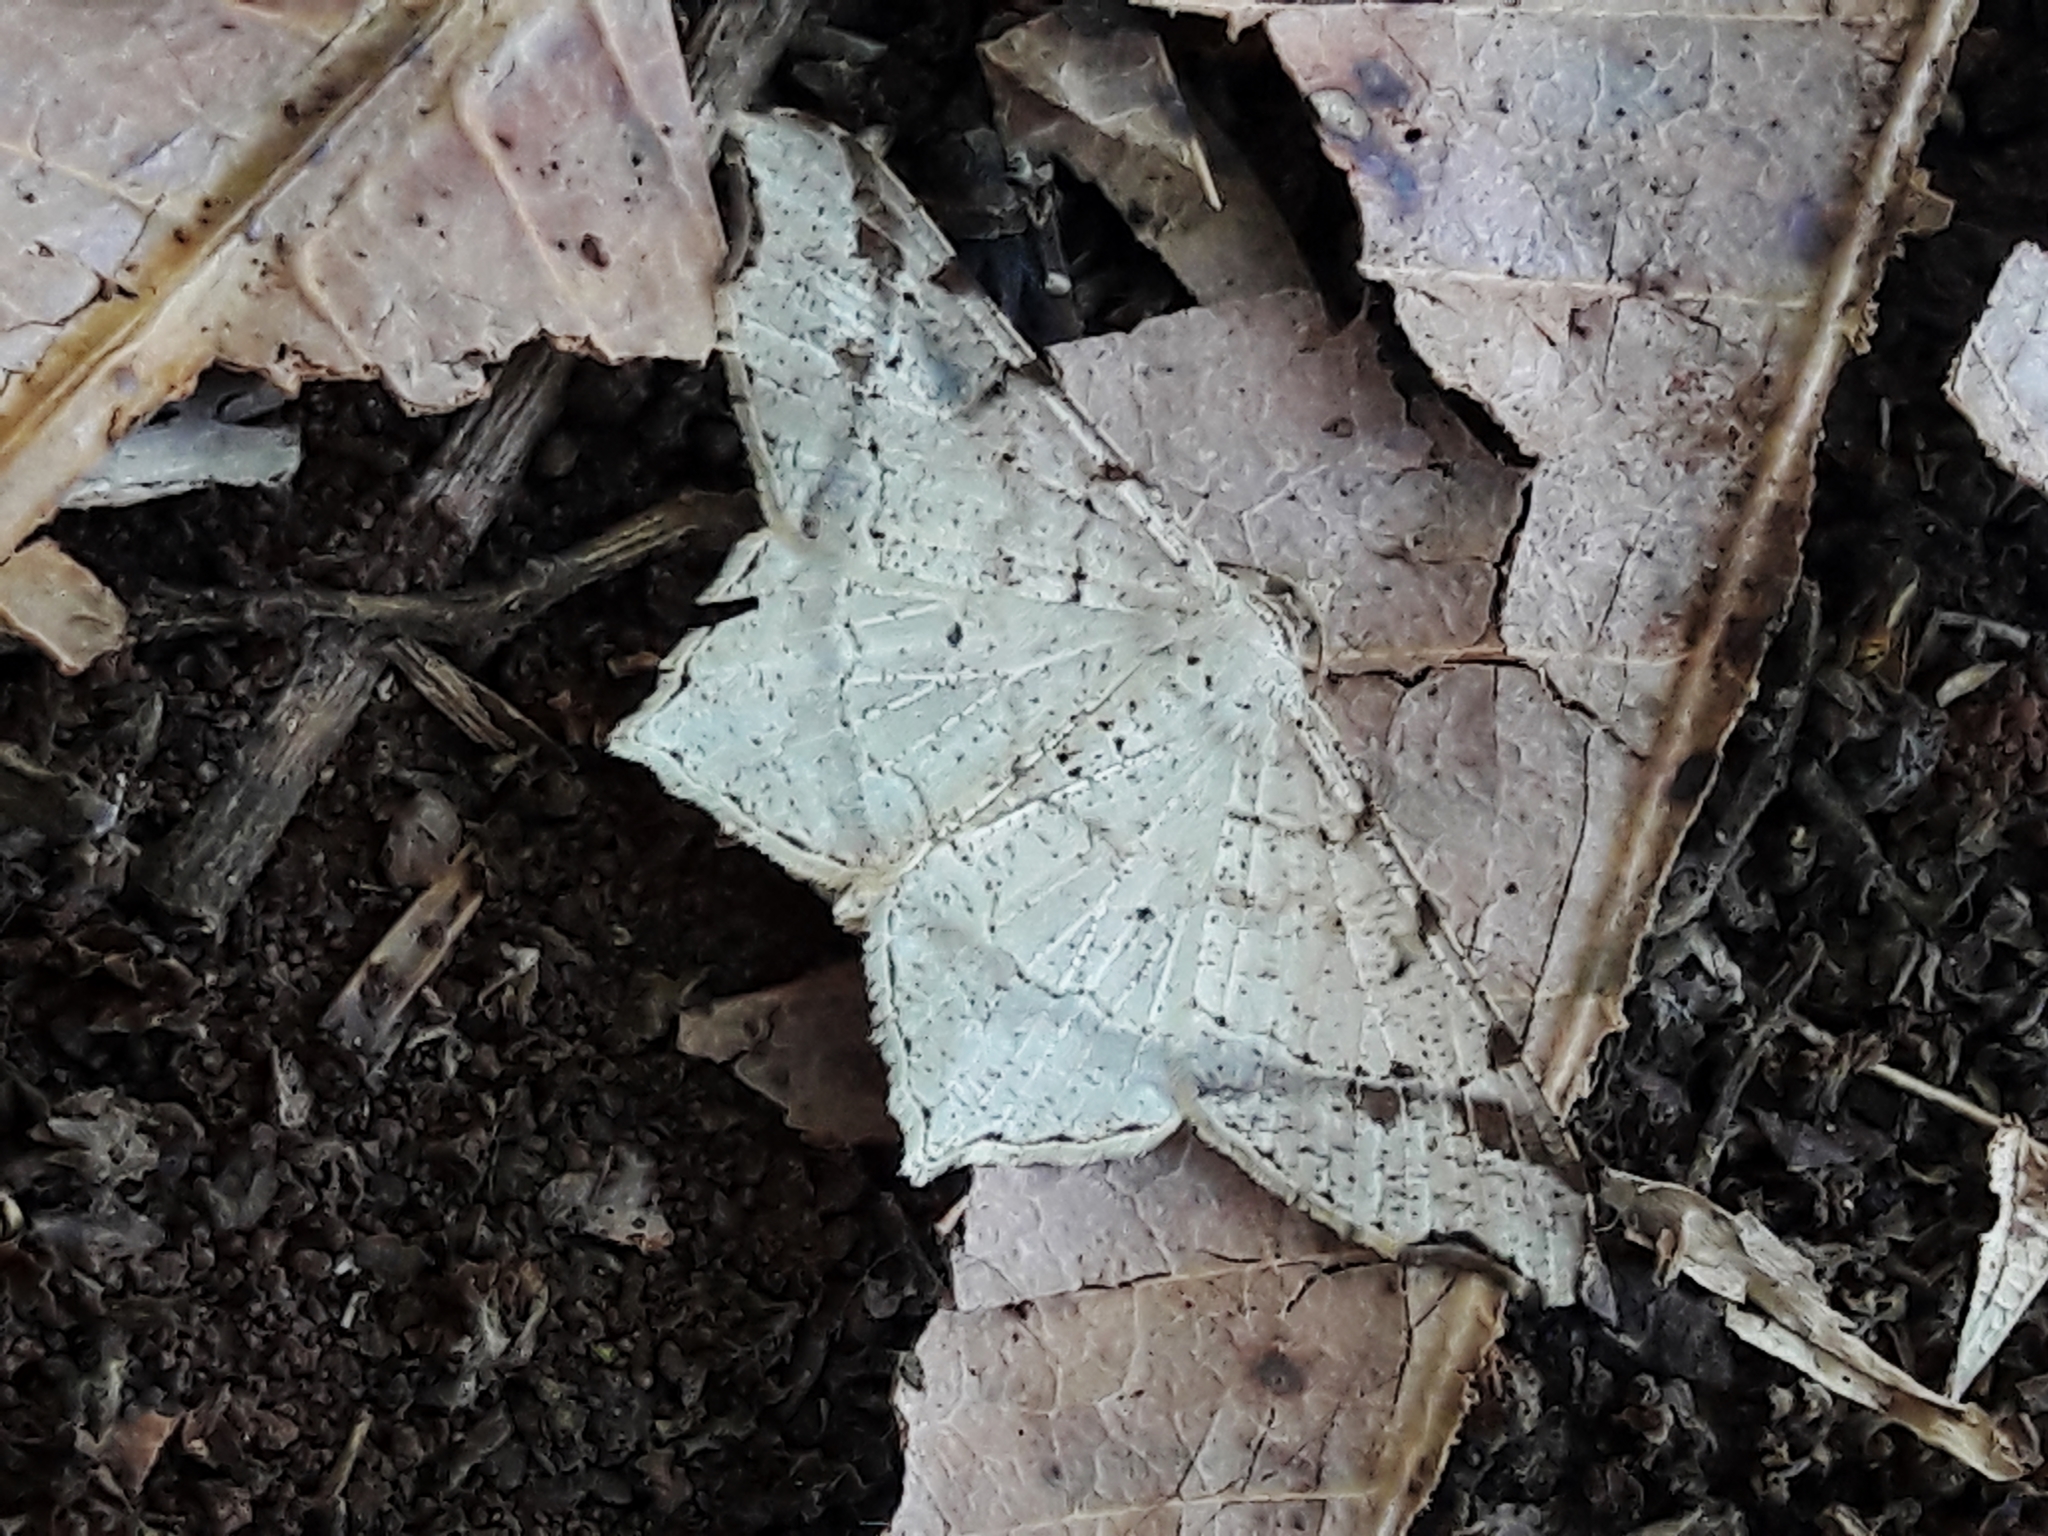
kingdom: Animalia
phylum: Arthropoda
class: Insecta
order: Lepidoptera
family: Geometridae
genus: Macaria
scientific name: Macaria regulata
